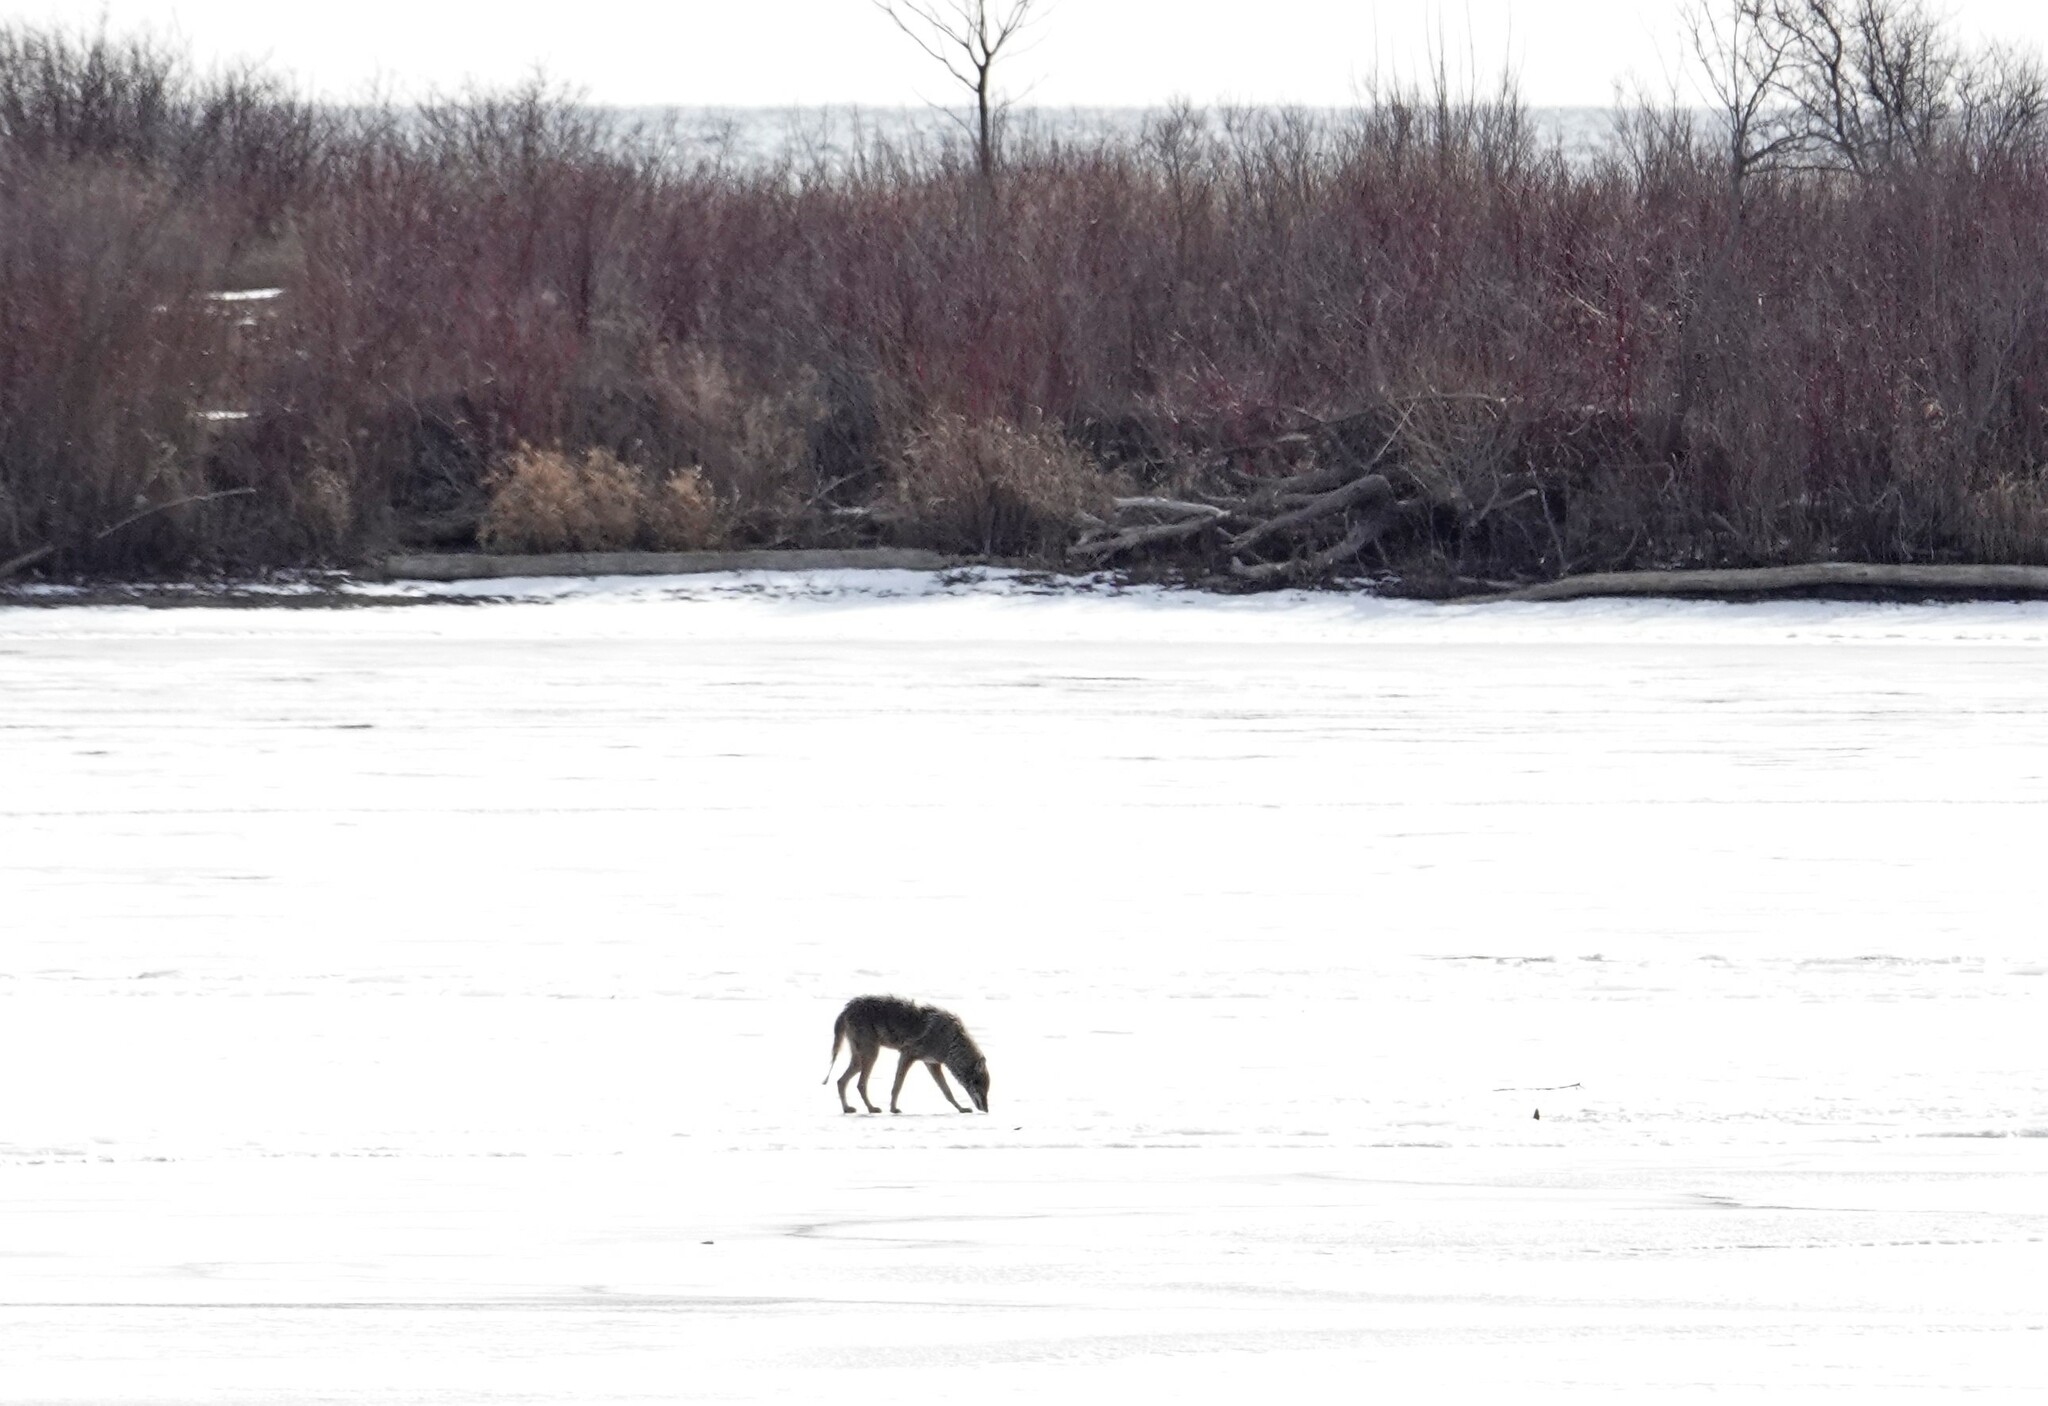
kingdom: Animalia
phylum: Chordata
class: Mammalia
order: Carnivora
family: Canidae
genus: Canis
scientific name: Canis latrans
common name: Coyote
